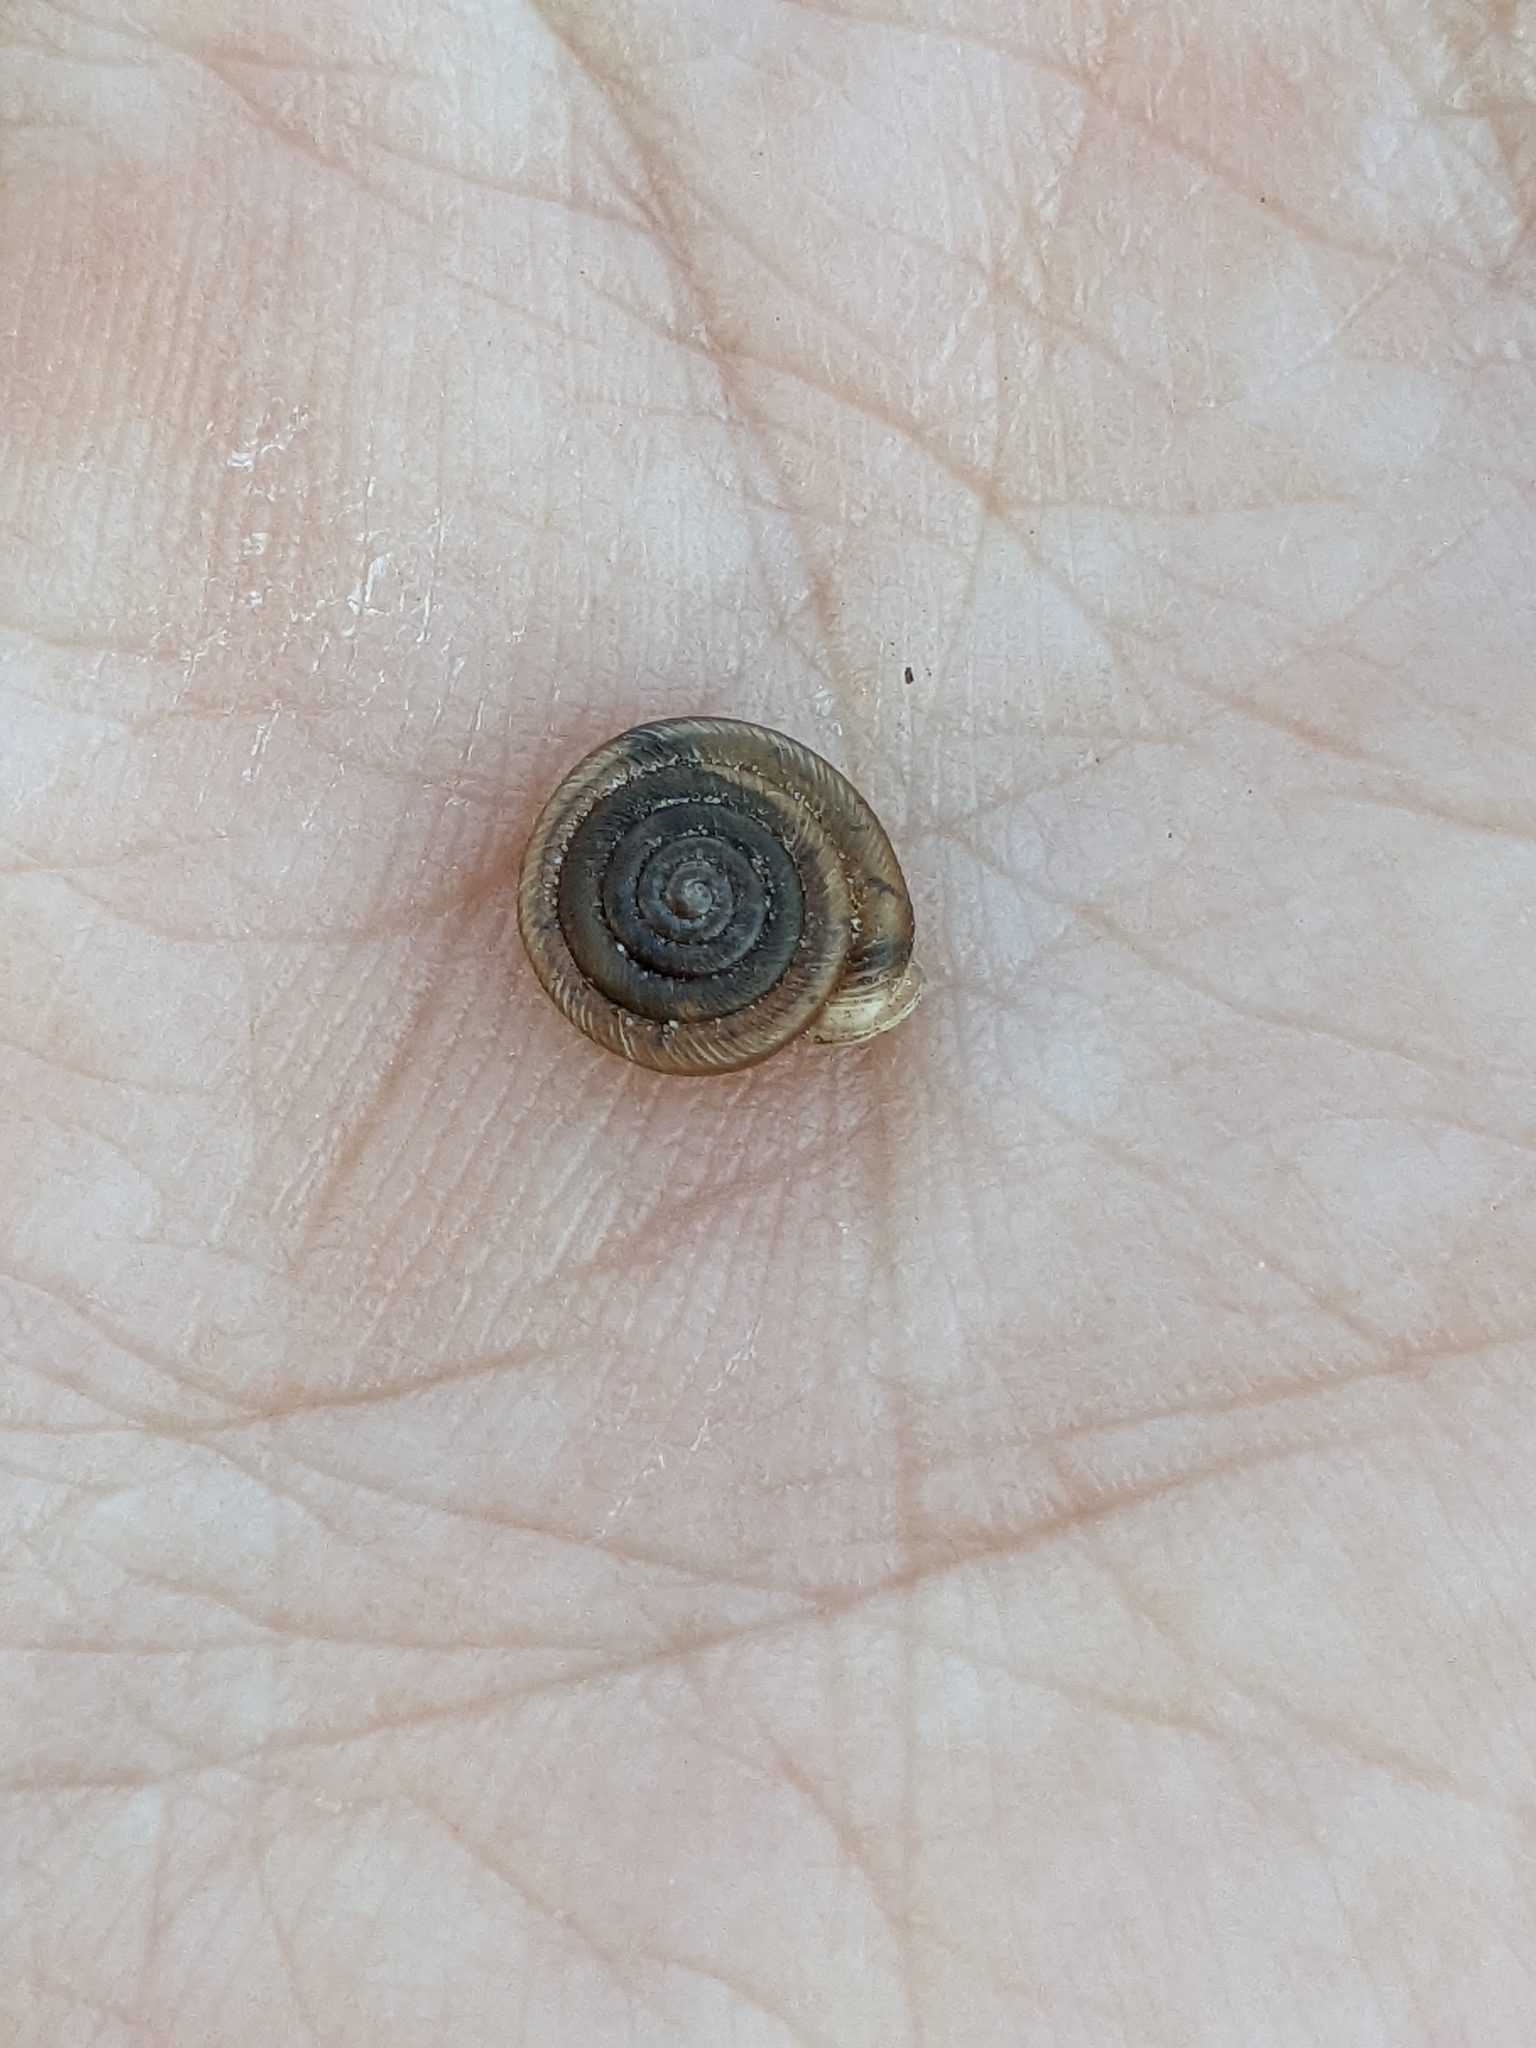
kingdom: Animalia
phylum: Mollusca
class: Gastropoda
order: Stylommatophora
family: Polygyridae
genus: Polygyra
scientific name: Polygyra cereolus
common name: Southern flatcone snail
